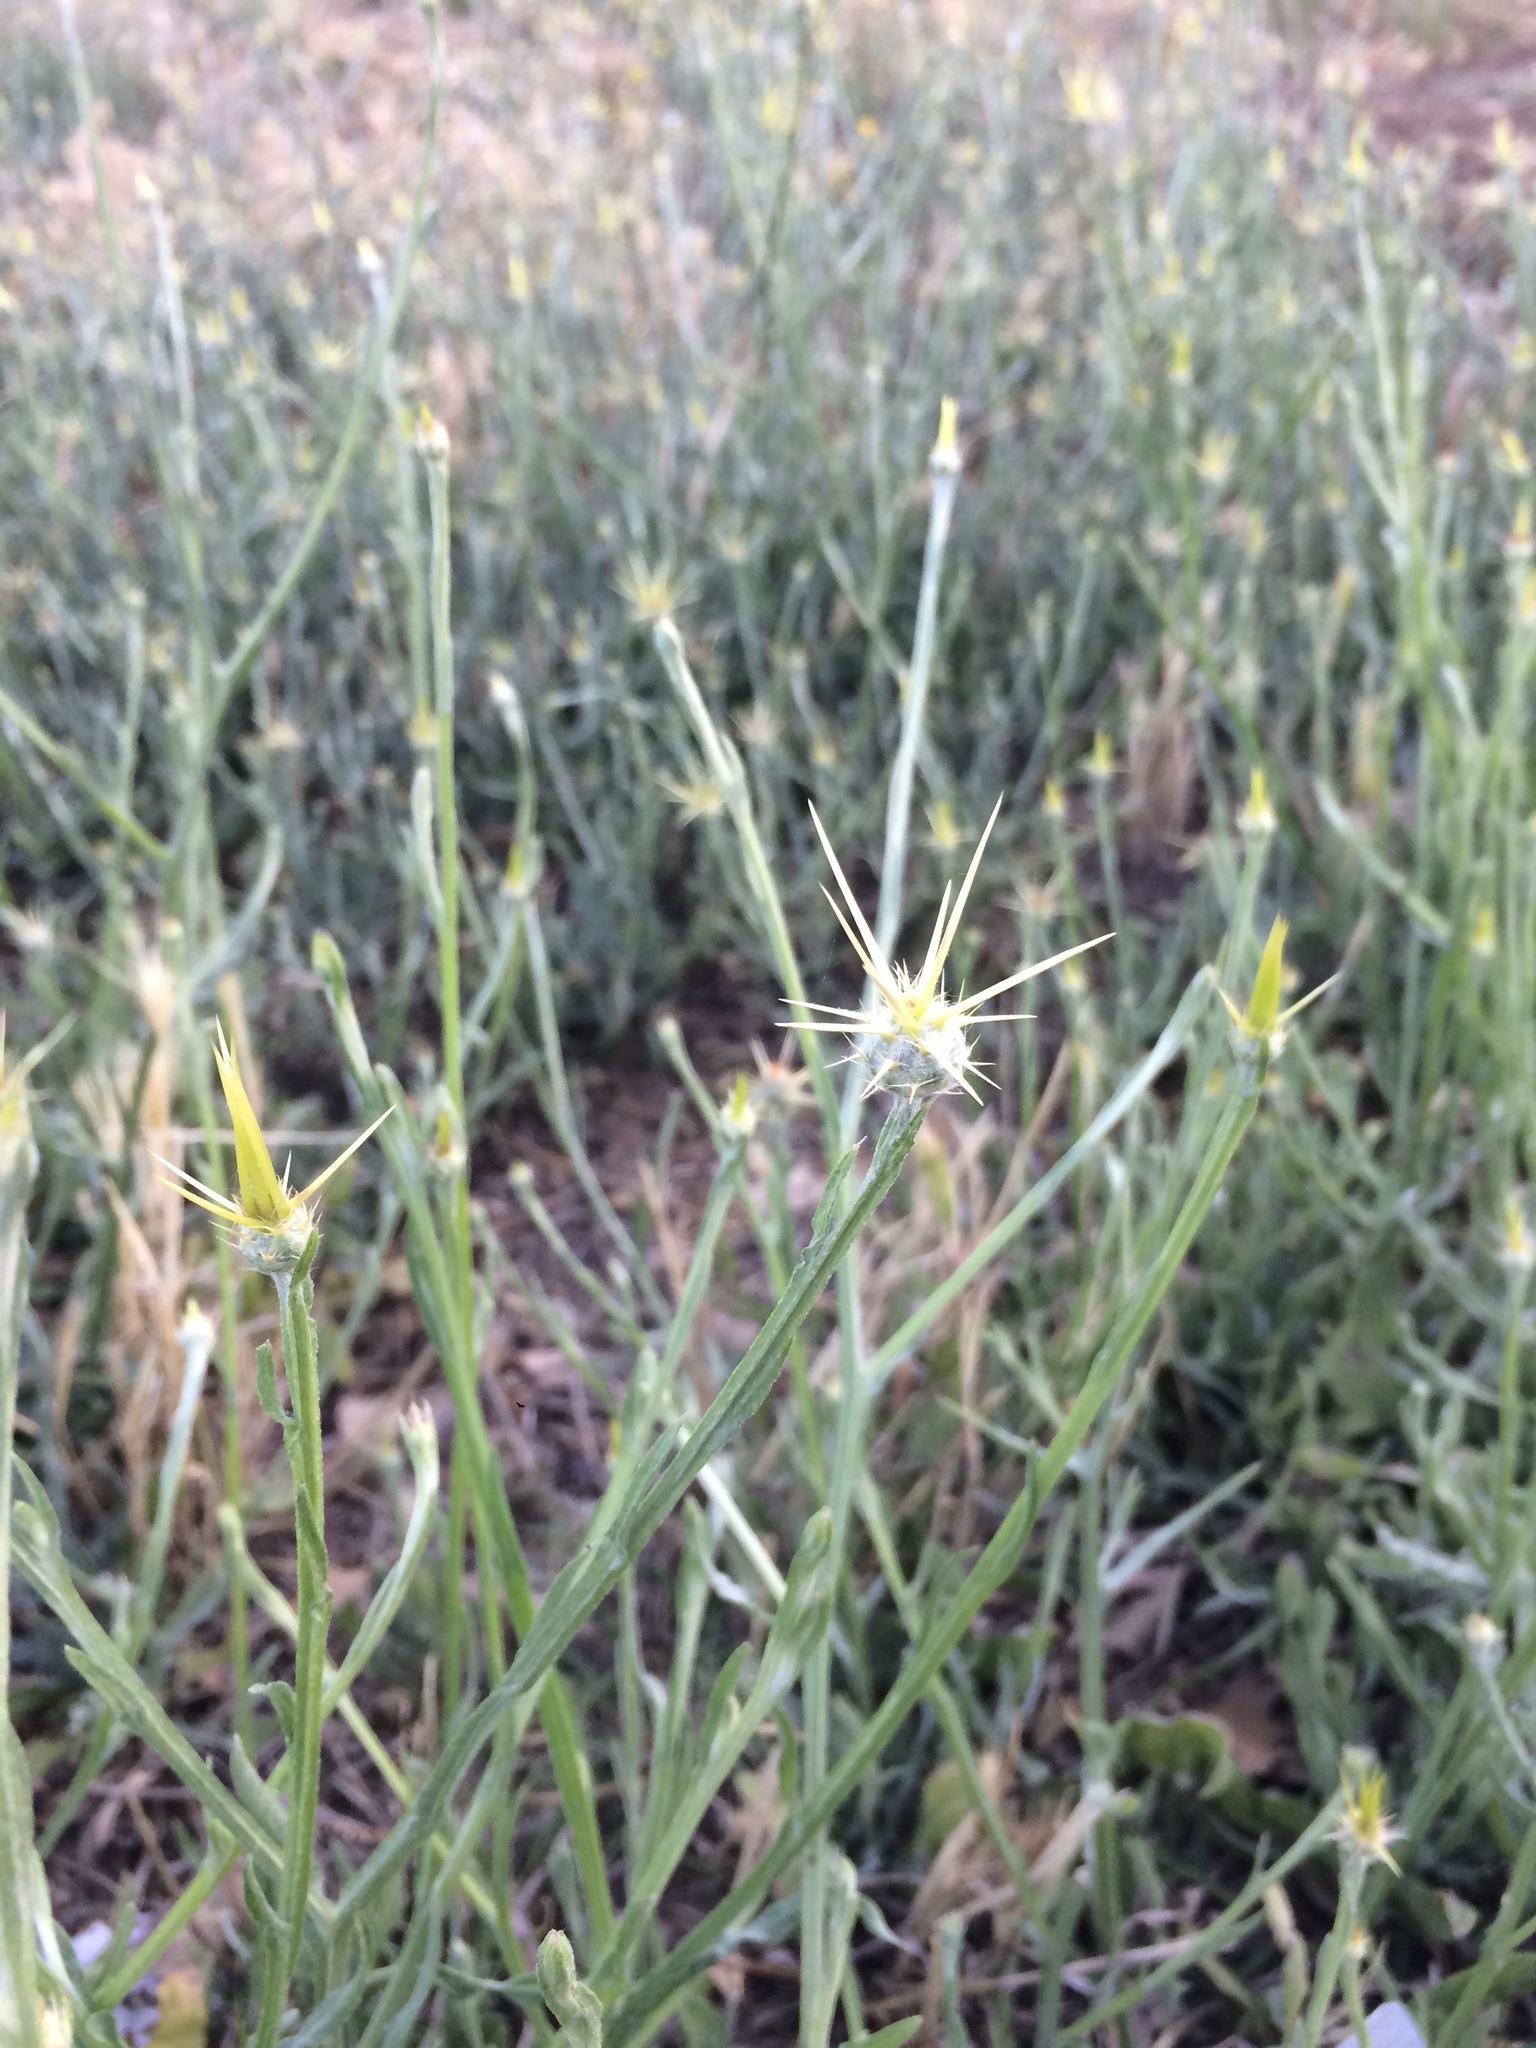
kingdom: Plantae
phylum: Tracheophyta
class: Magnoliopsida
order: Asterales
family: Asteraceae
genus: Centaurea
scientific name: Centaurea solstitialis
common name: Yellow star-thistle
